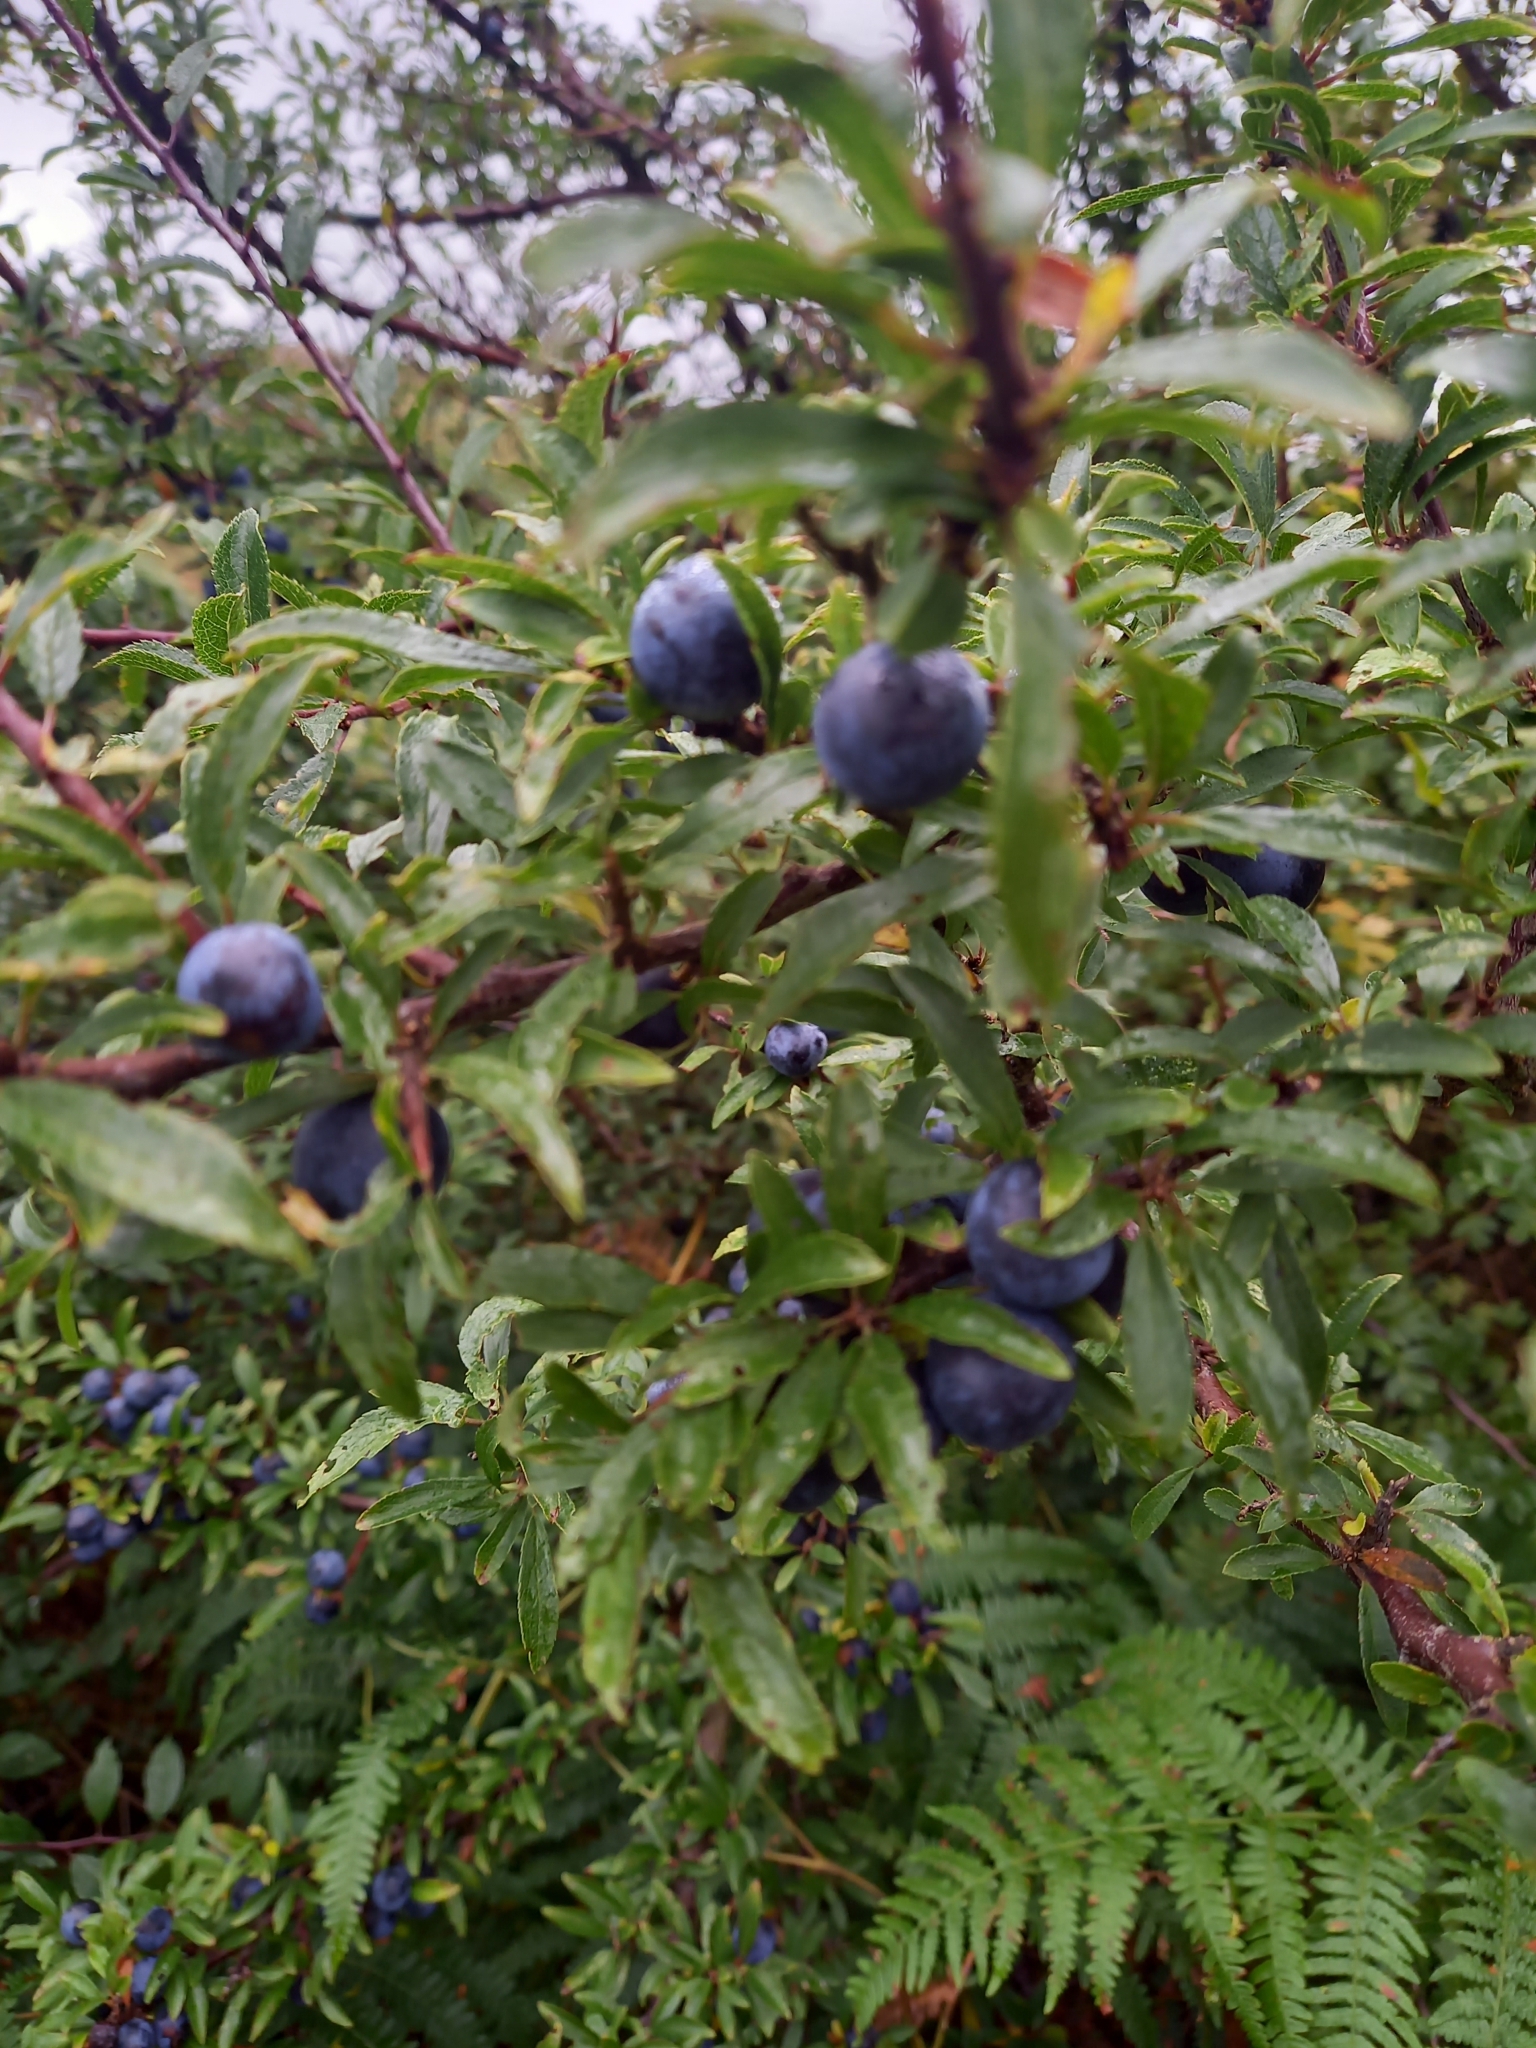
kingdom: Plantae
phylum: Tracheophyta
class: Magnoliopsida
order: Rosales
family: Rosaceae
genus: Prunus
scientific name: Prunus spinosa
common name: Blackthorn
